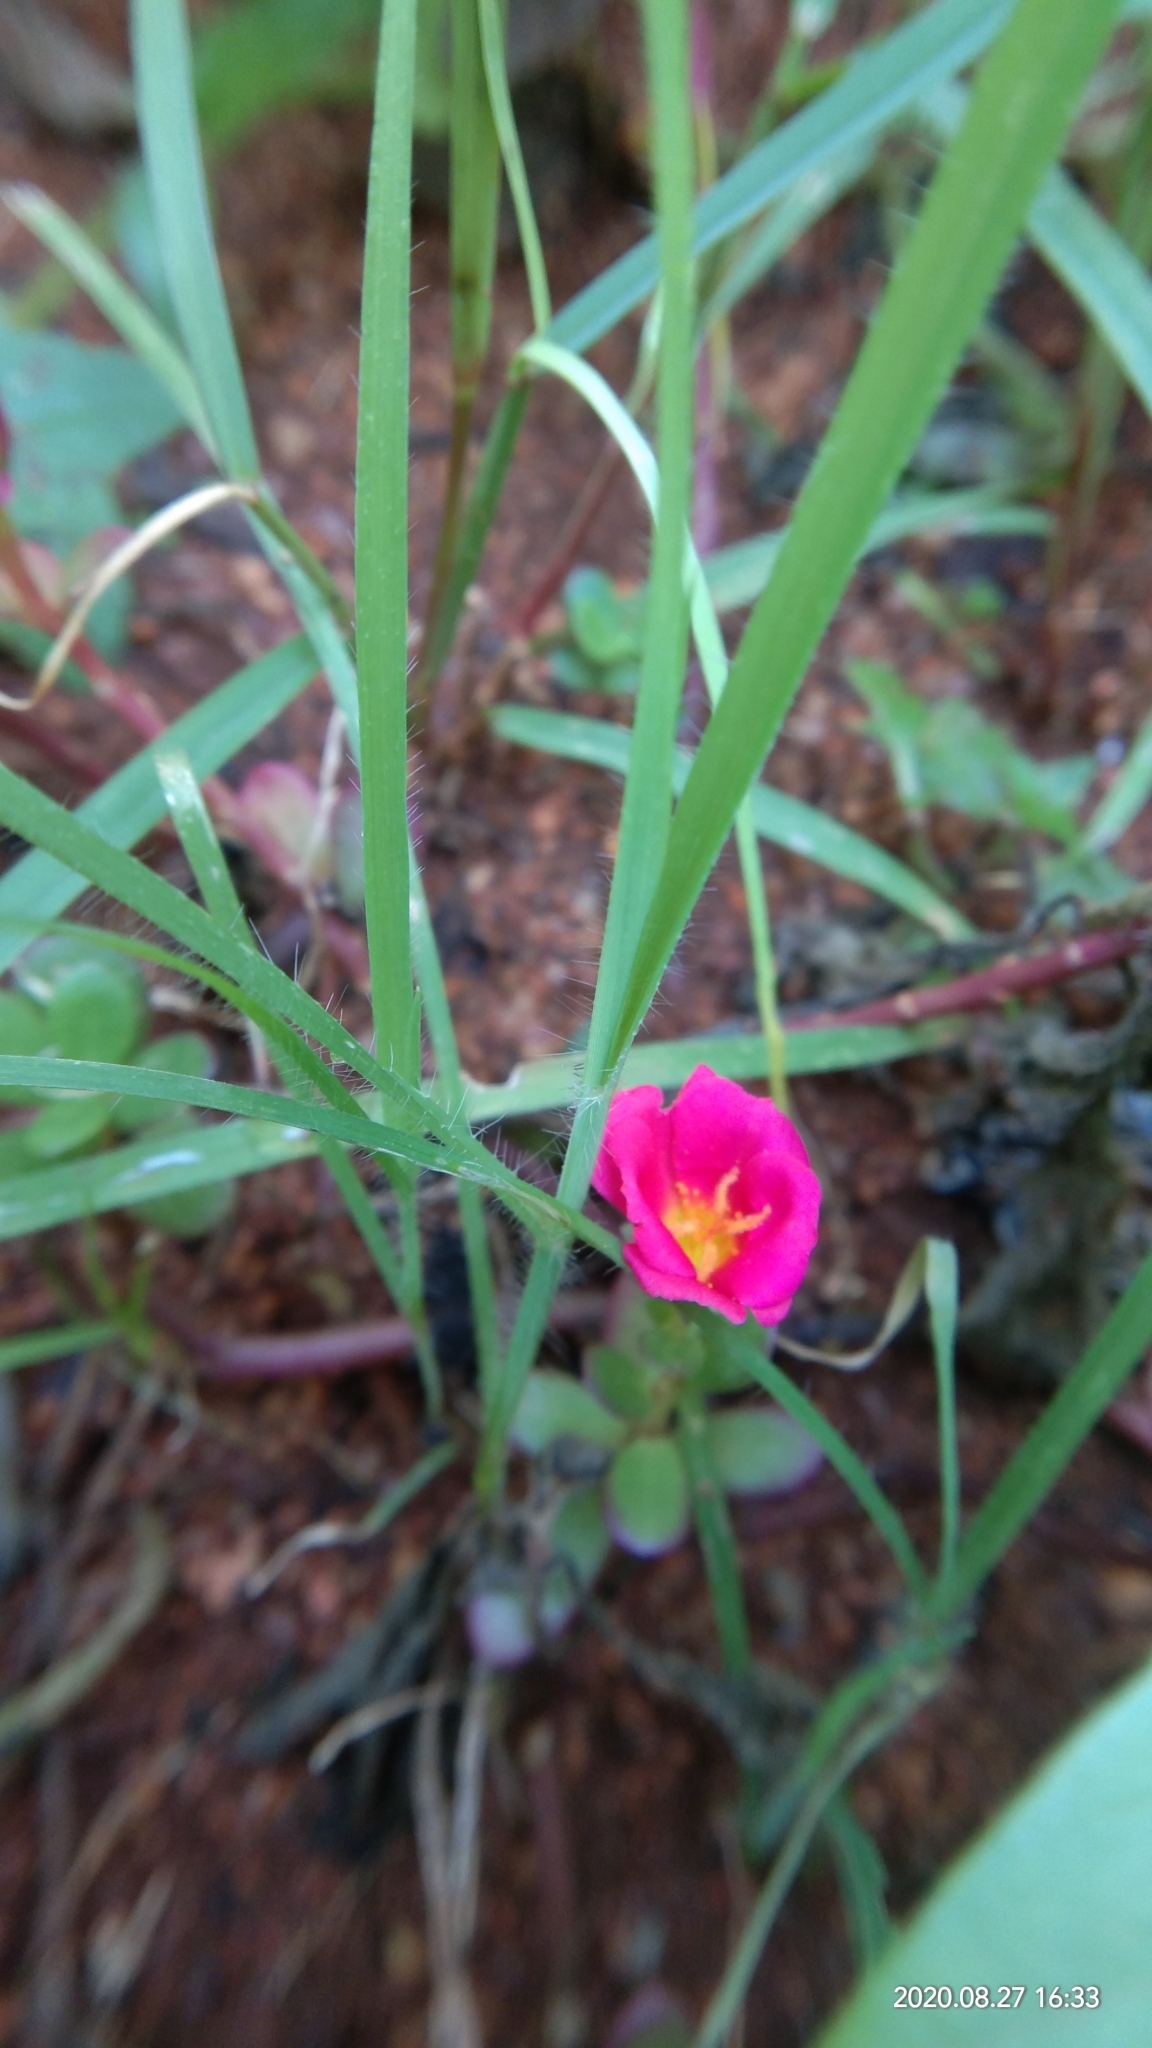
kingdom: Plantae
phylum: Tracheophyta
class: Magnoliopsida
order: Caryophyllales
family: Portulacaceae
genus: Portulaca
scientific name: Portulaca grandiflora
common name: Moss-rose
